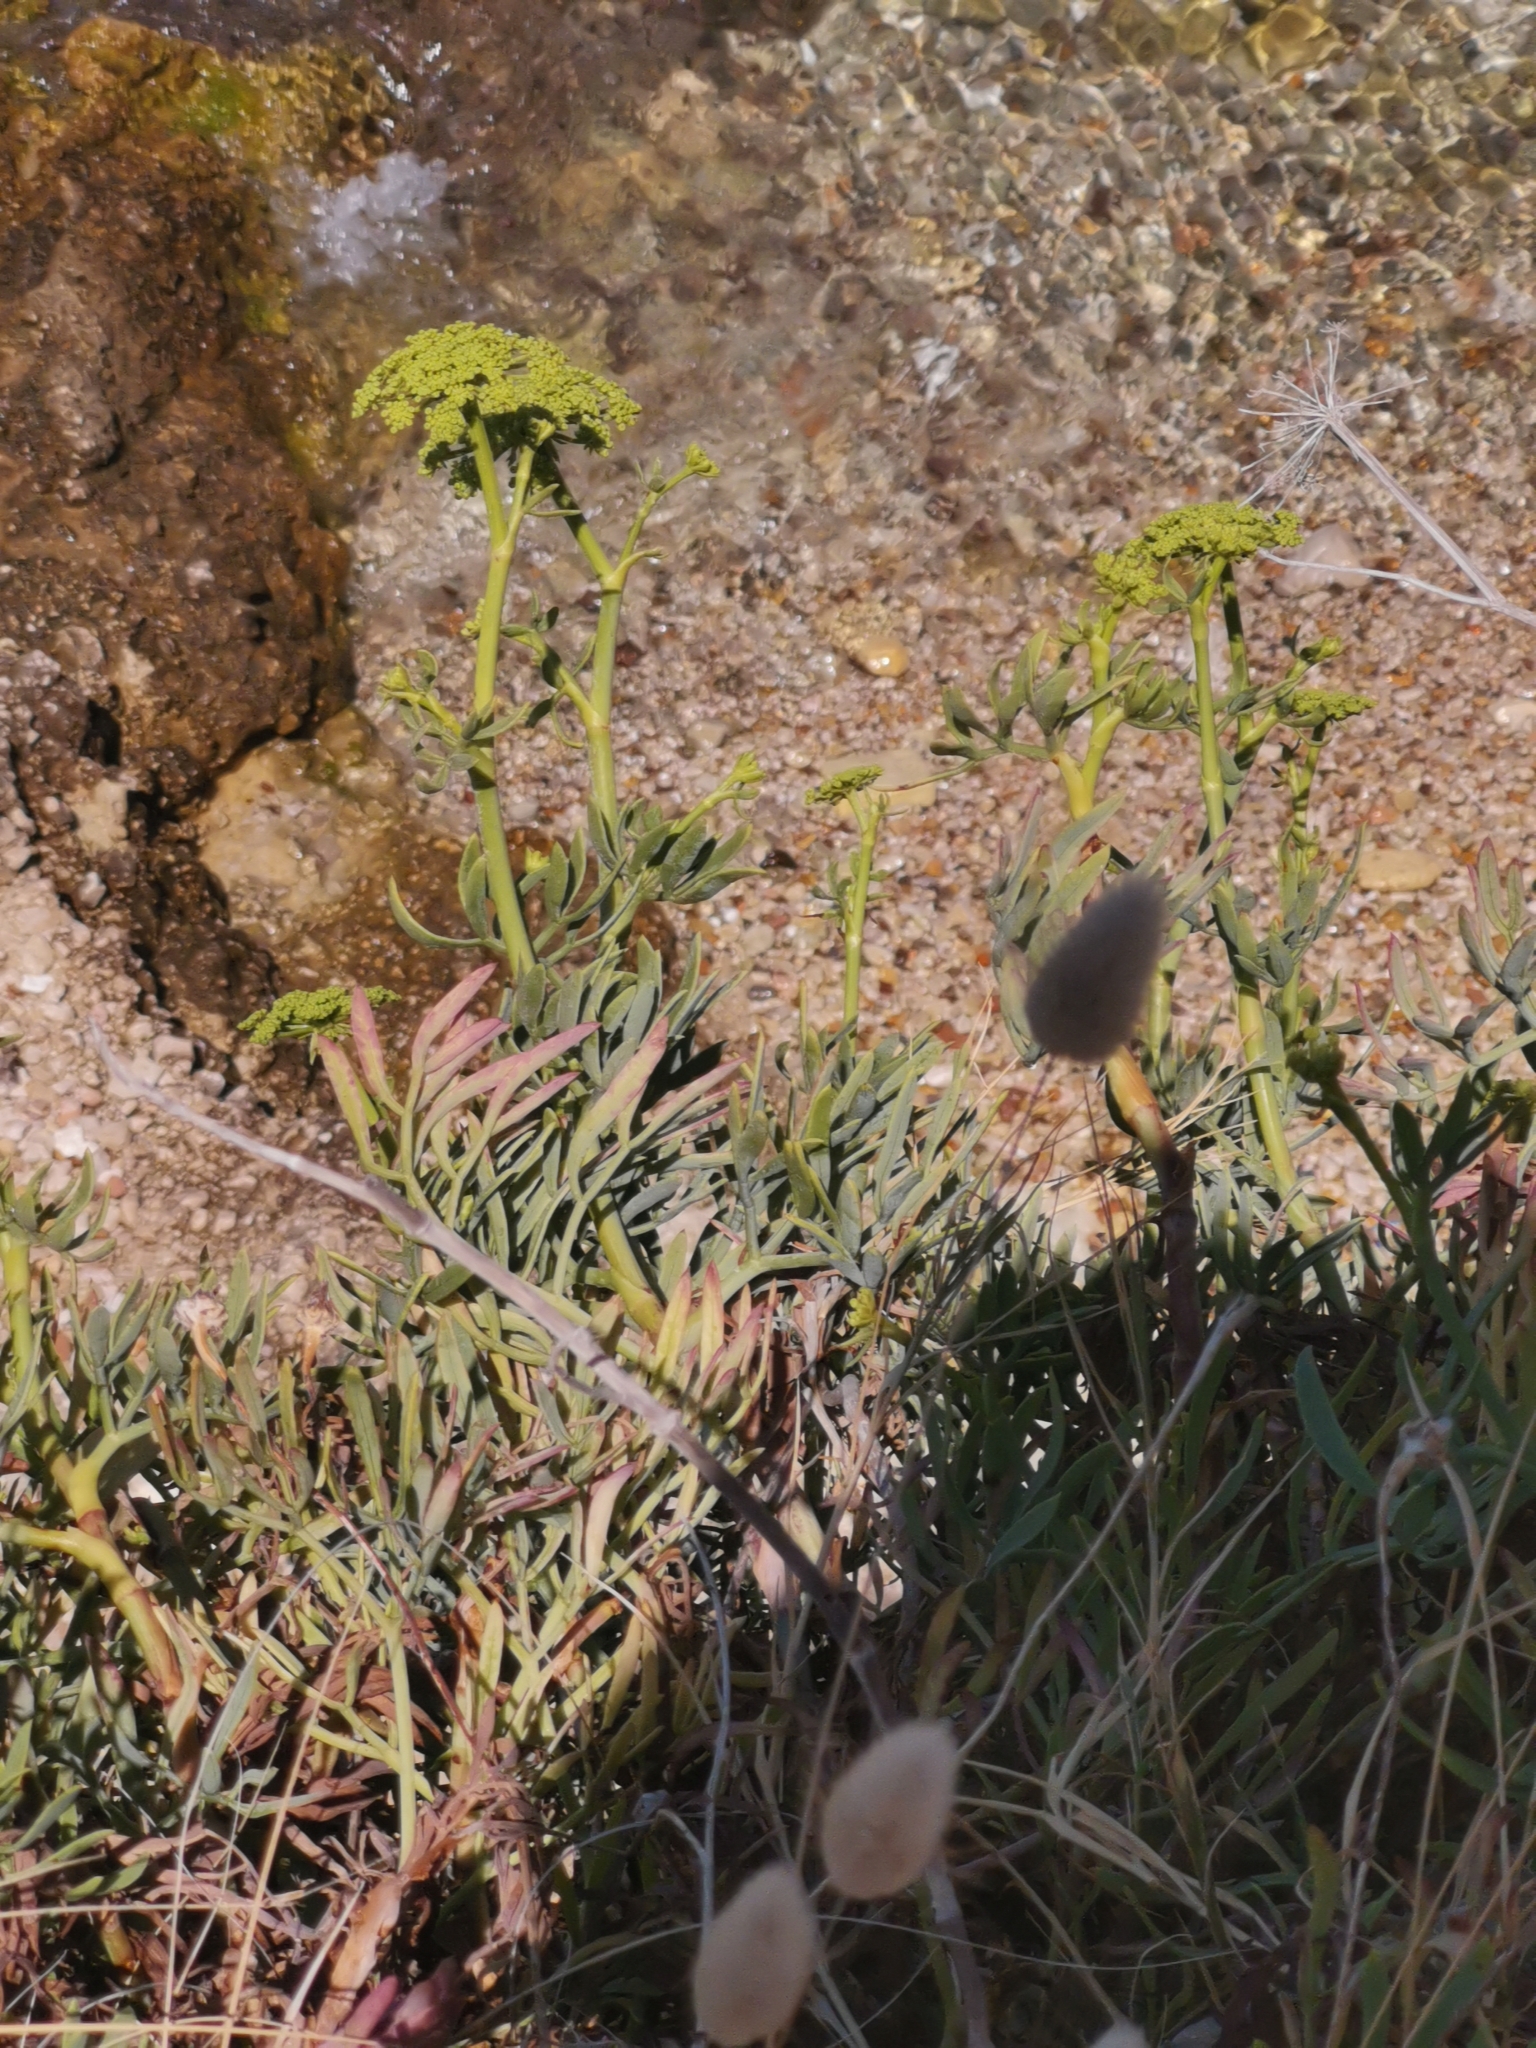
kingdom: Plantae
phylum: Tracheophyta
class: Magnoliopsida
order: Apiales
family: Apiaceae
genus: Crithmum
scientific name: Crithmum maritimum
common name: Rock samphire
